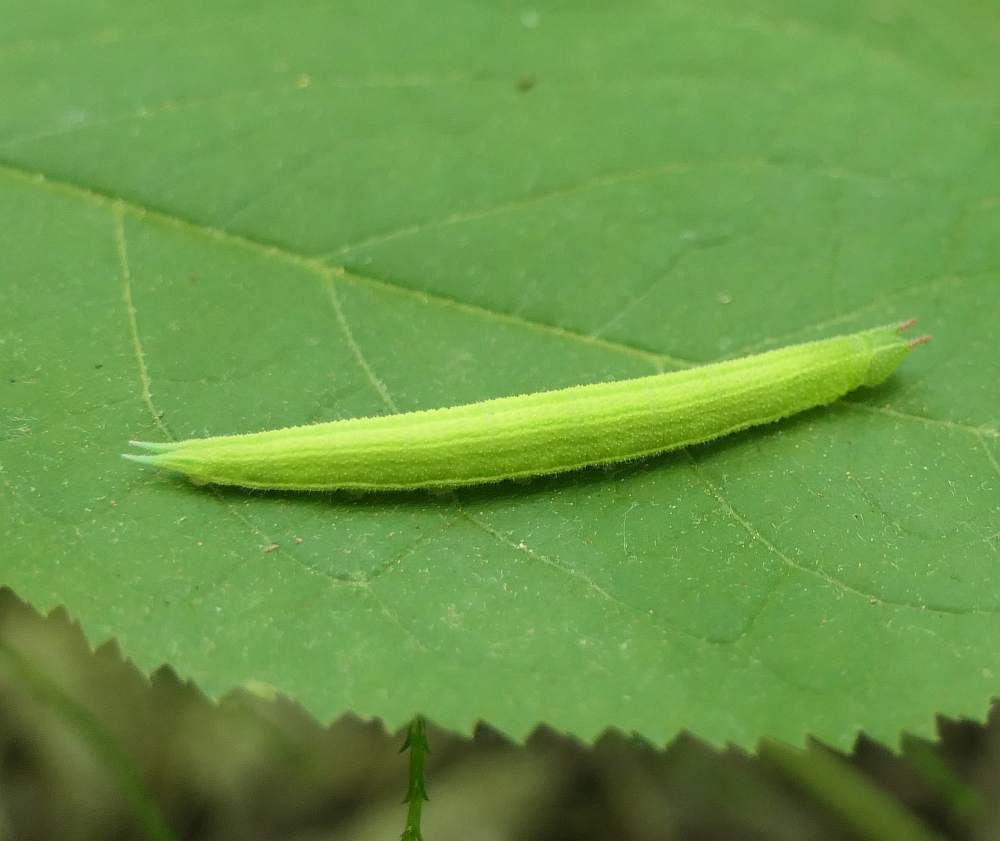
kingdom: Animalia
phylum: Arthropoda
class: Insecta
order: Lepidoptera
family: Nymphalidae
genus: Lethe
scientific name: Lethe anthedon
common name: Northern pearly-eye
